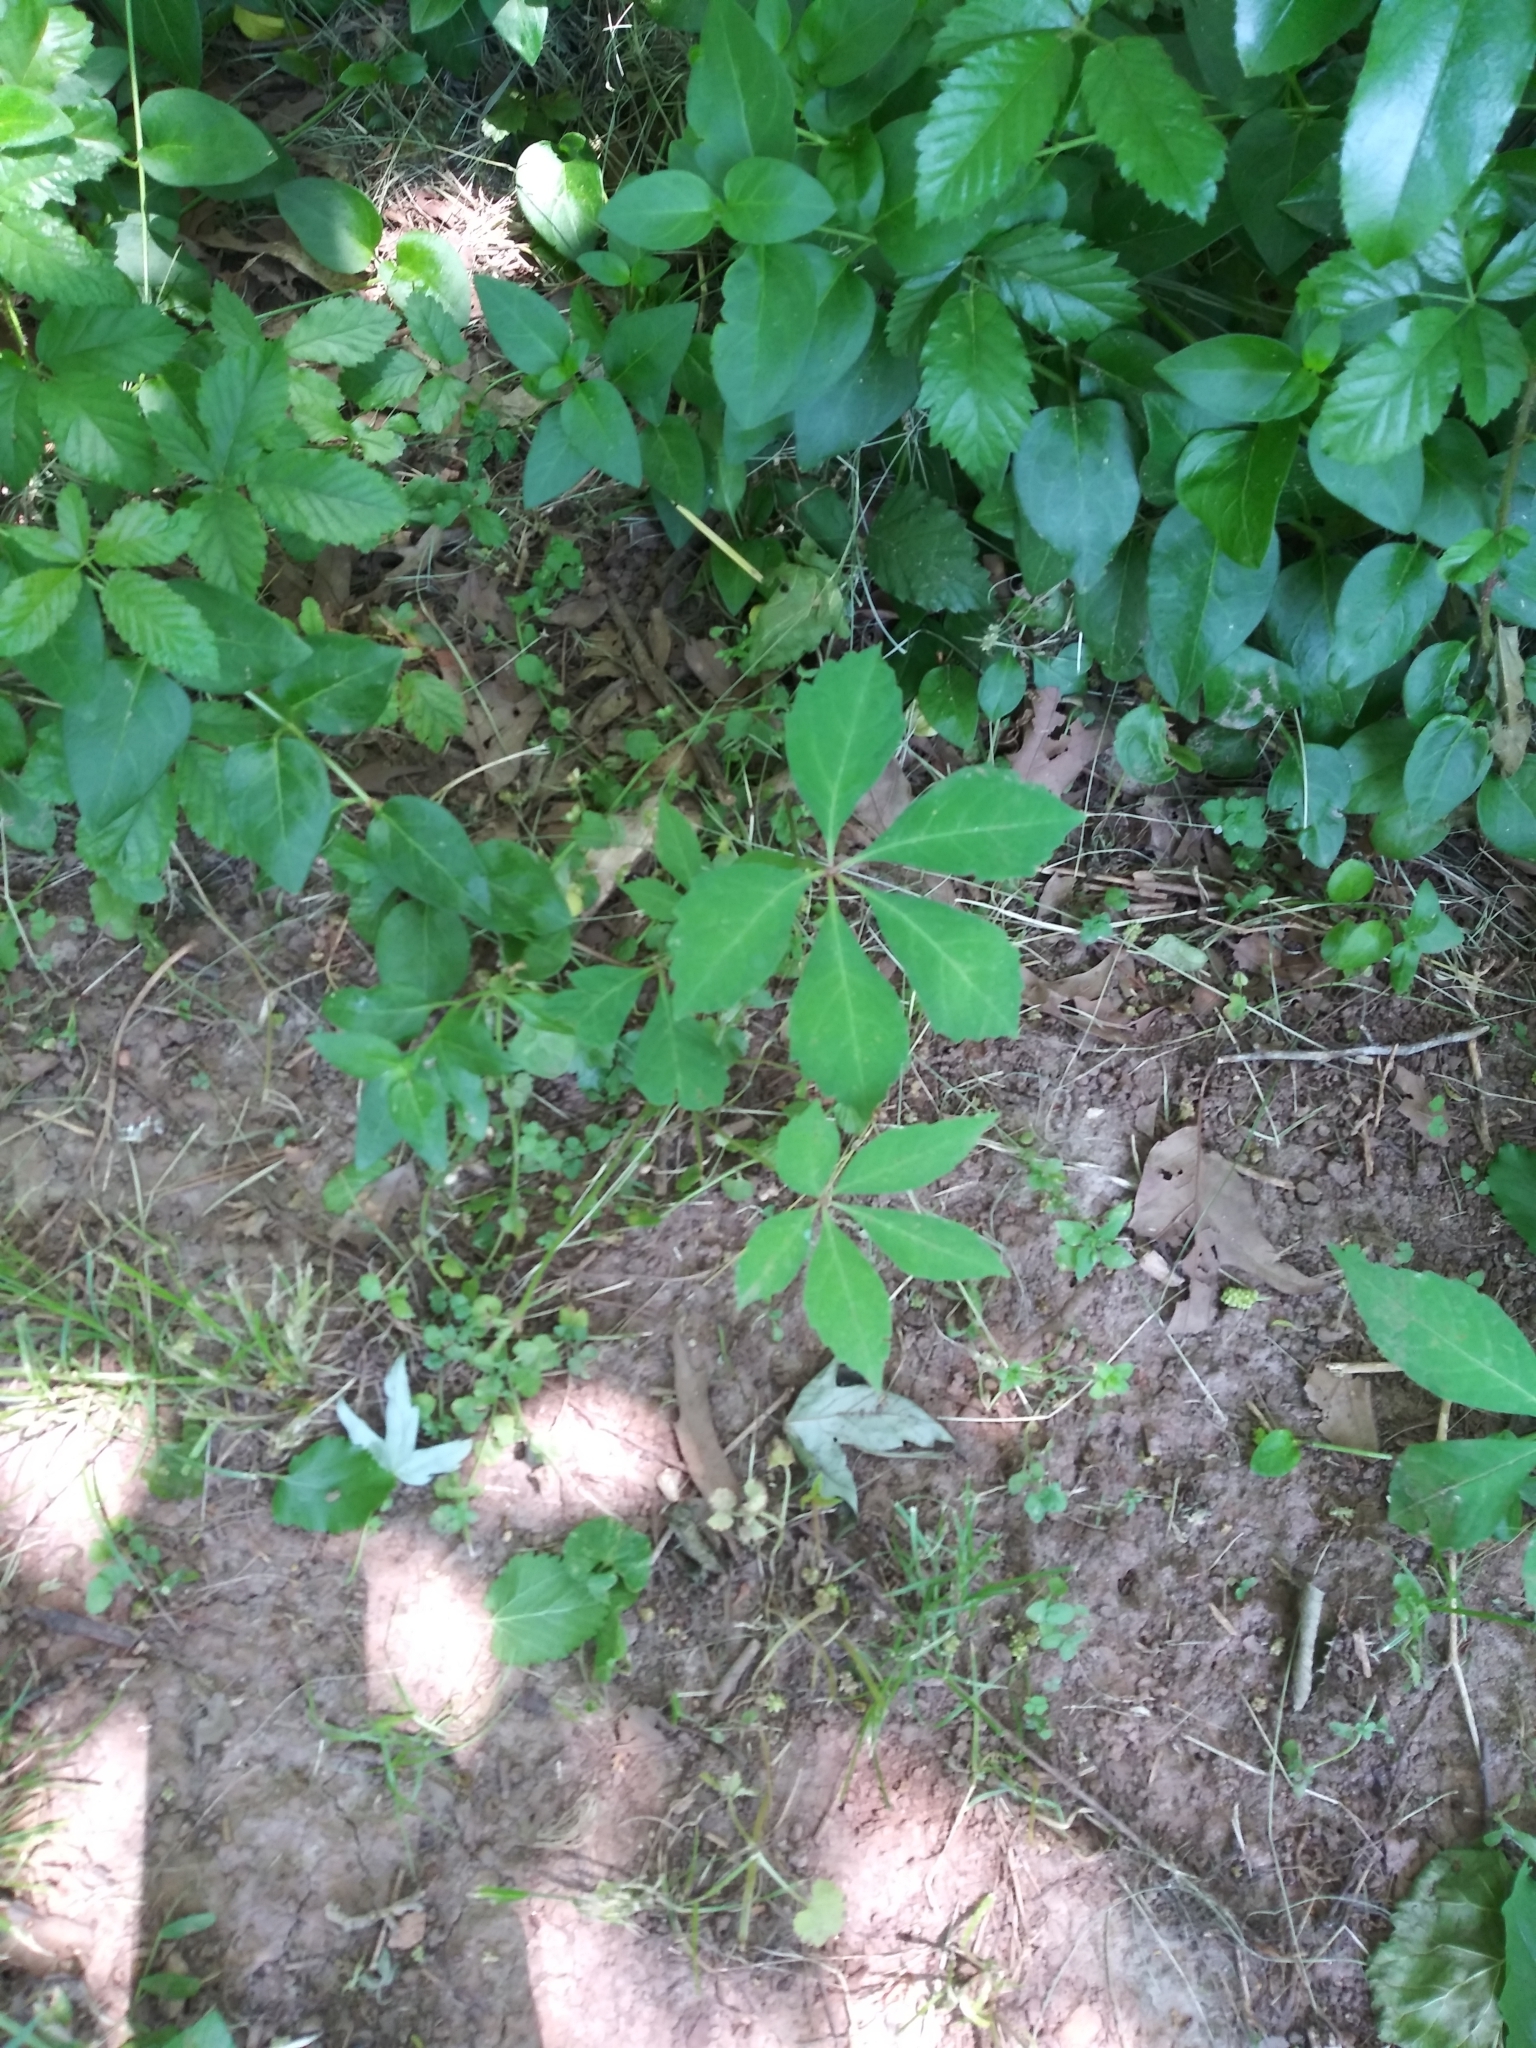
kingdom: Plantae
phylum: Tracheophyta
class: Magnoliopsida
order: Vitales
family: Vitaceae
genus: Parthenocissus
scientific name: Parthenocissus quinquefolia
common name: Virginia-creeper
